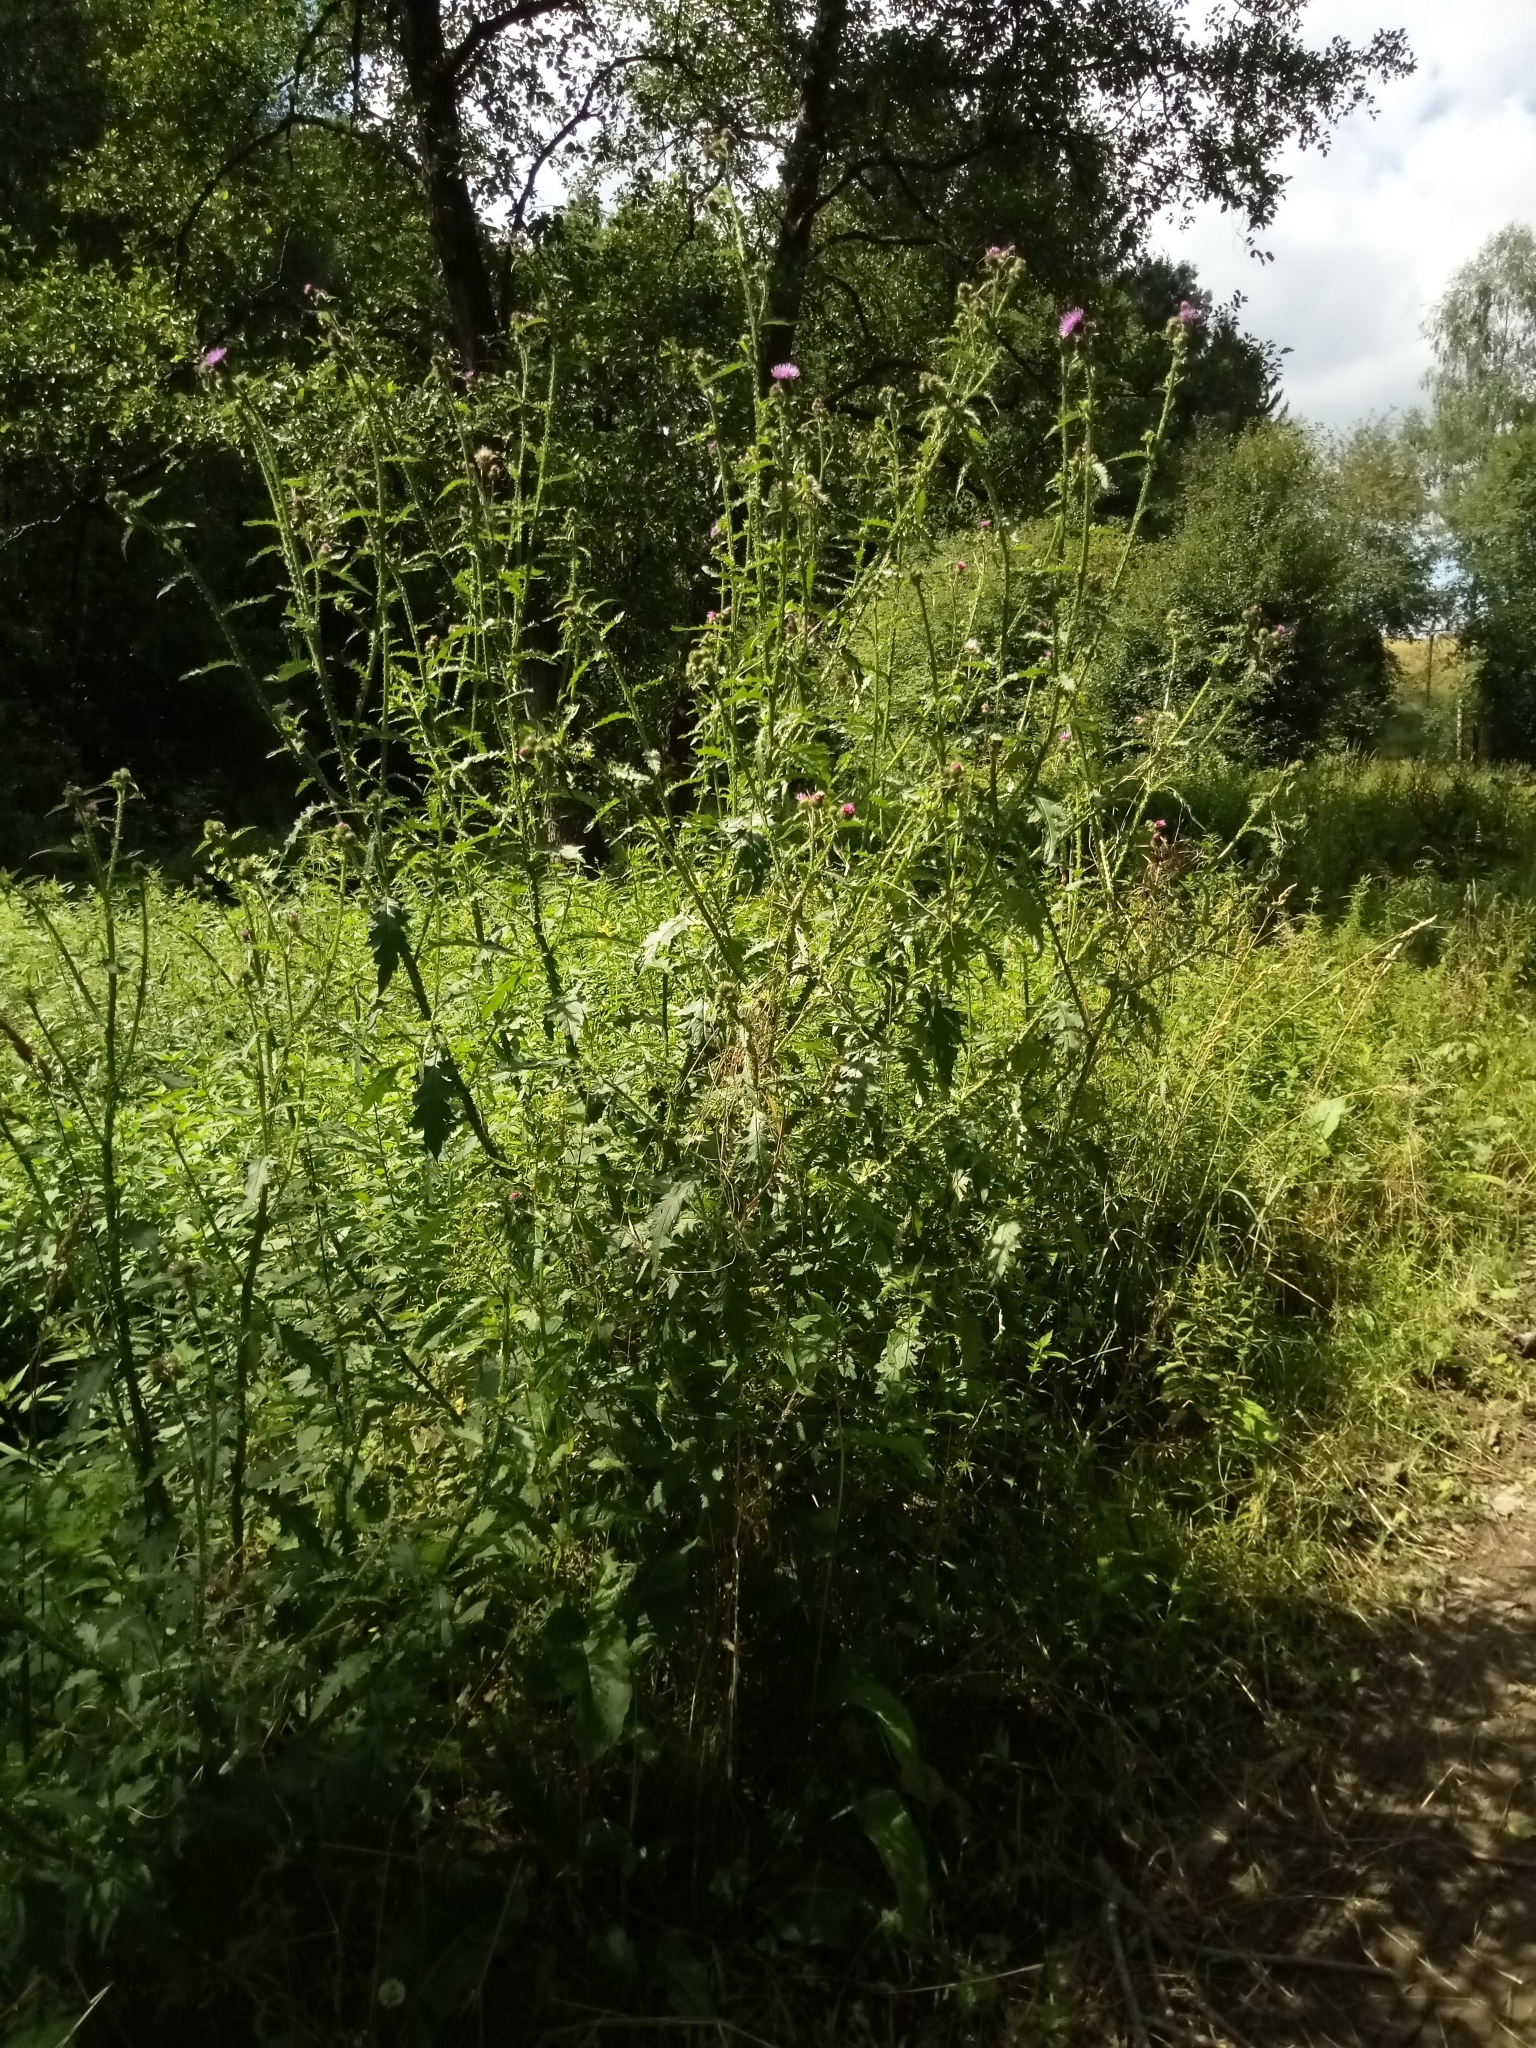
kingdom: Plantae
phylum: Tracheophyta
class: Magnoliopsida
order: Asterales
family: Asteraceae
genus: Carduus
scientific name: Carduus crispus
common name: Welted thistle
